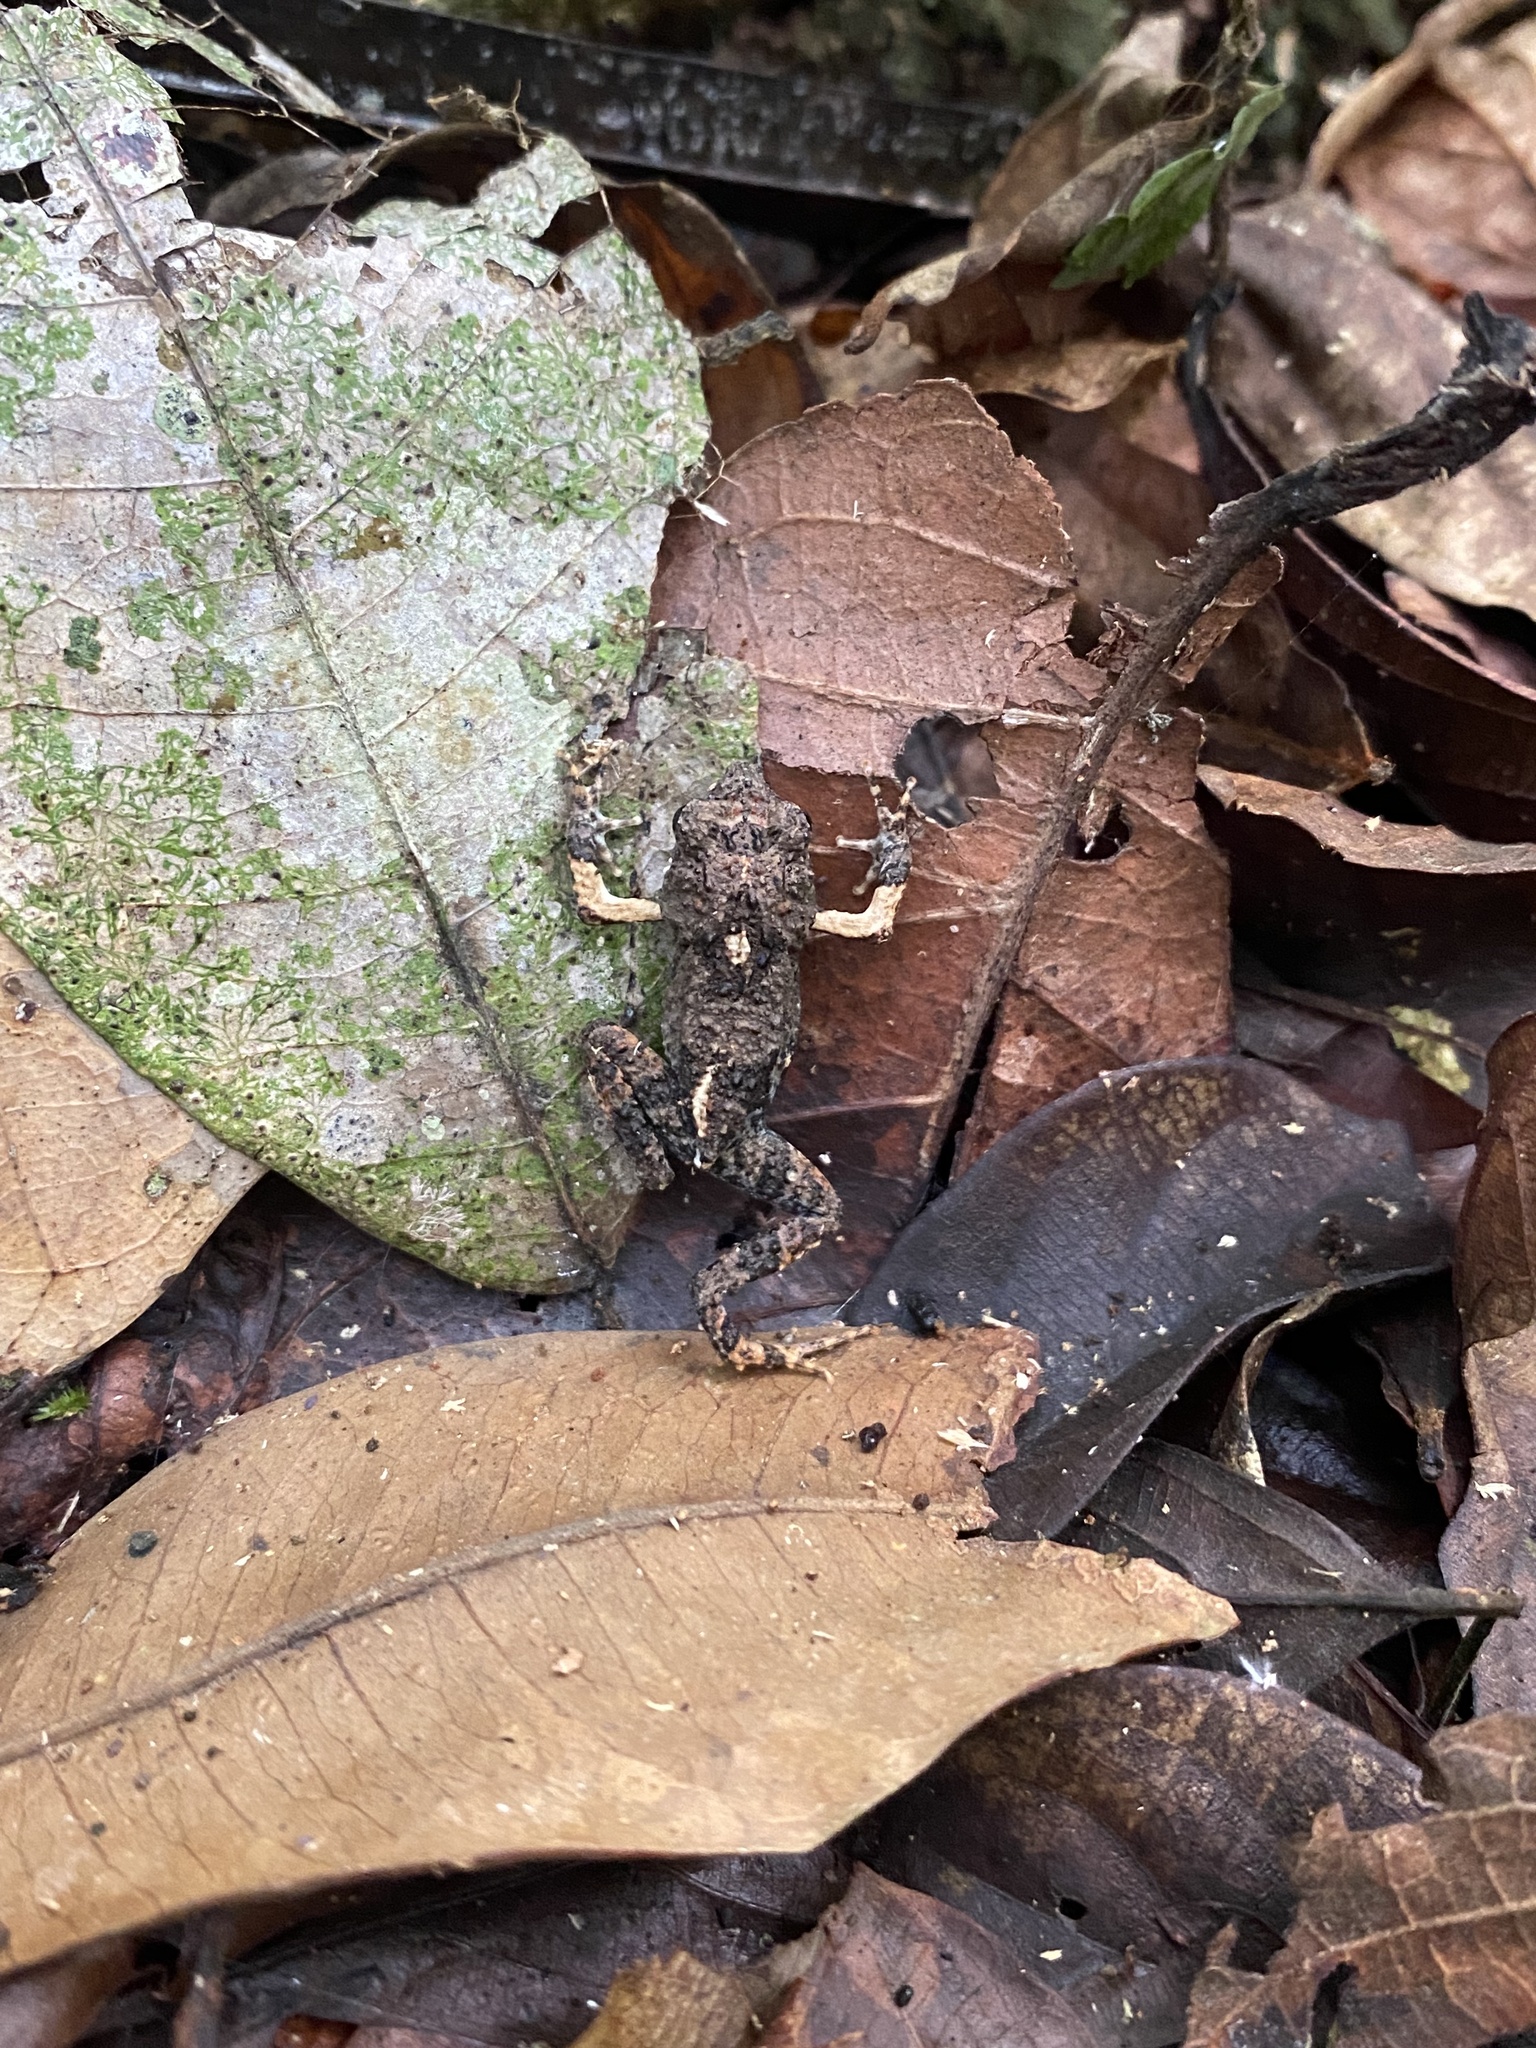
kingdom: Animalia
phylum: Chordata
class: Amphibia
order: Anura
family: Leptodactylidae
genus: Engystomops
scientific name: Engystomops pustulosus
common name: Tungara frog
